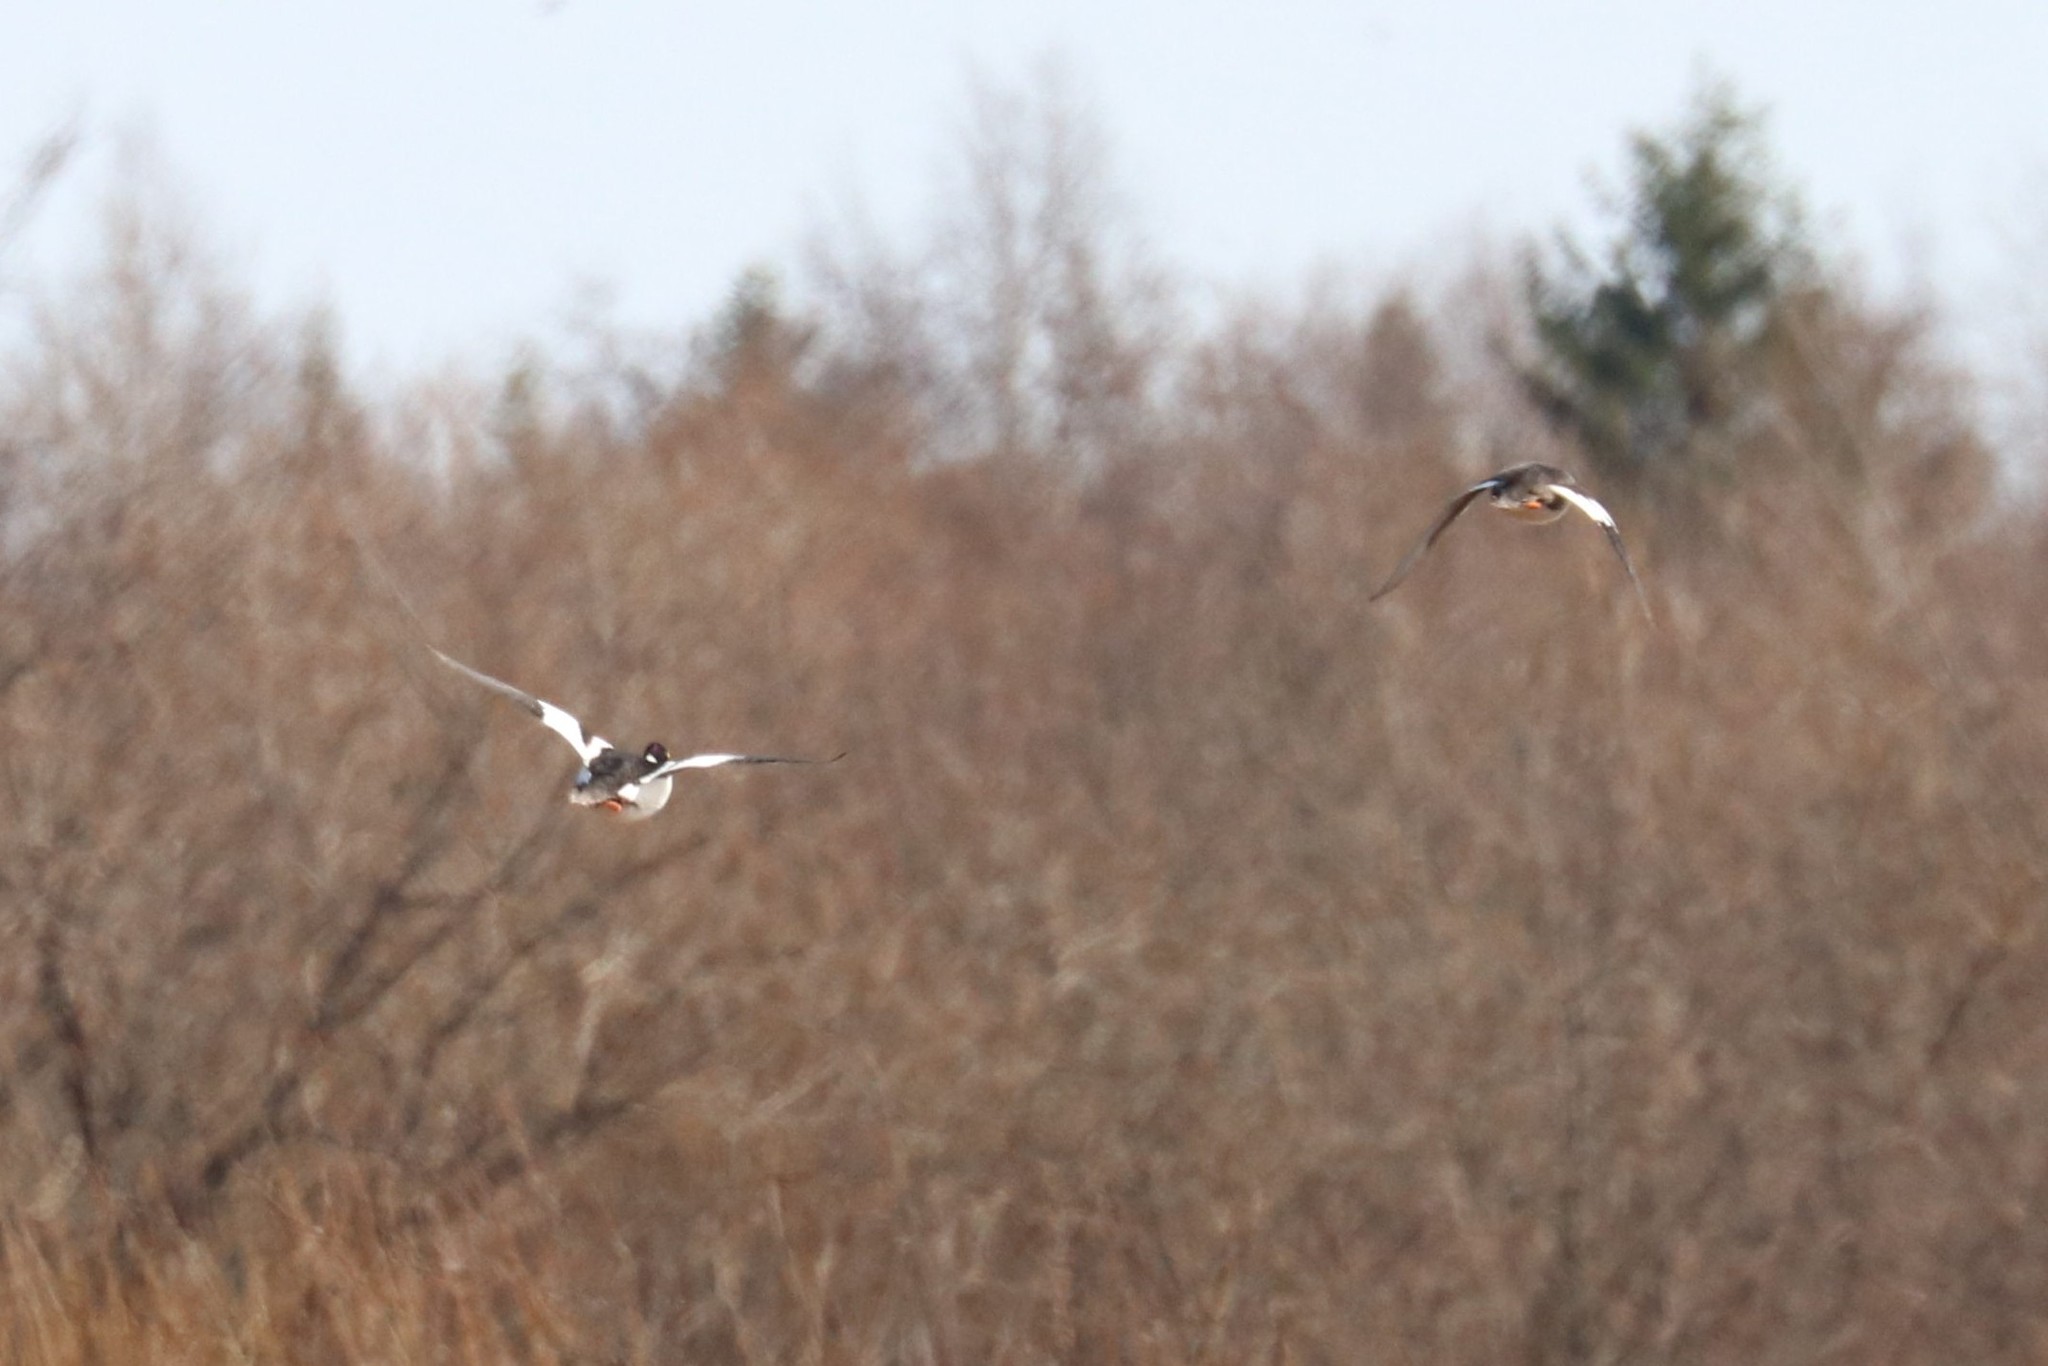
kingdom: Animalia
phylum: Chordata
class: Aves
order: Anseriformes
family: Anatidae
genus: Bucephala
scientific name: Bucephala clangula
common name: Common goldeneye
